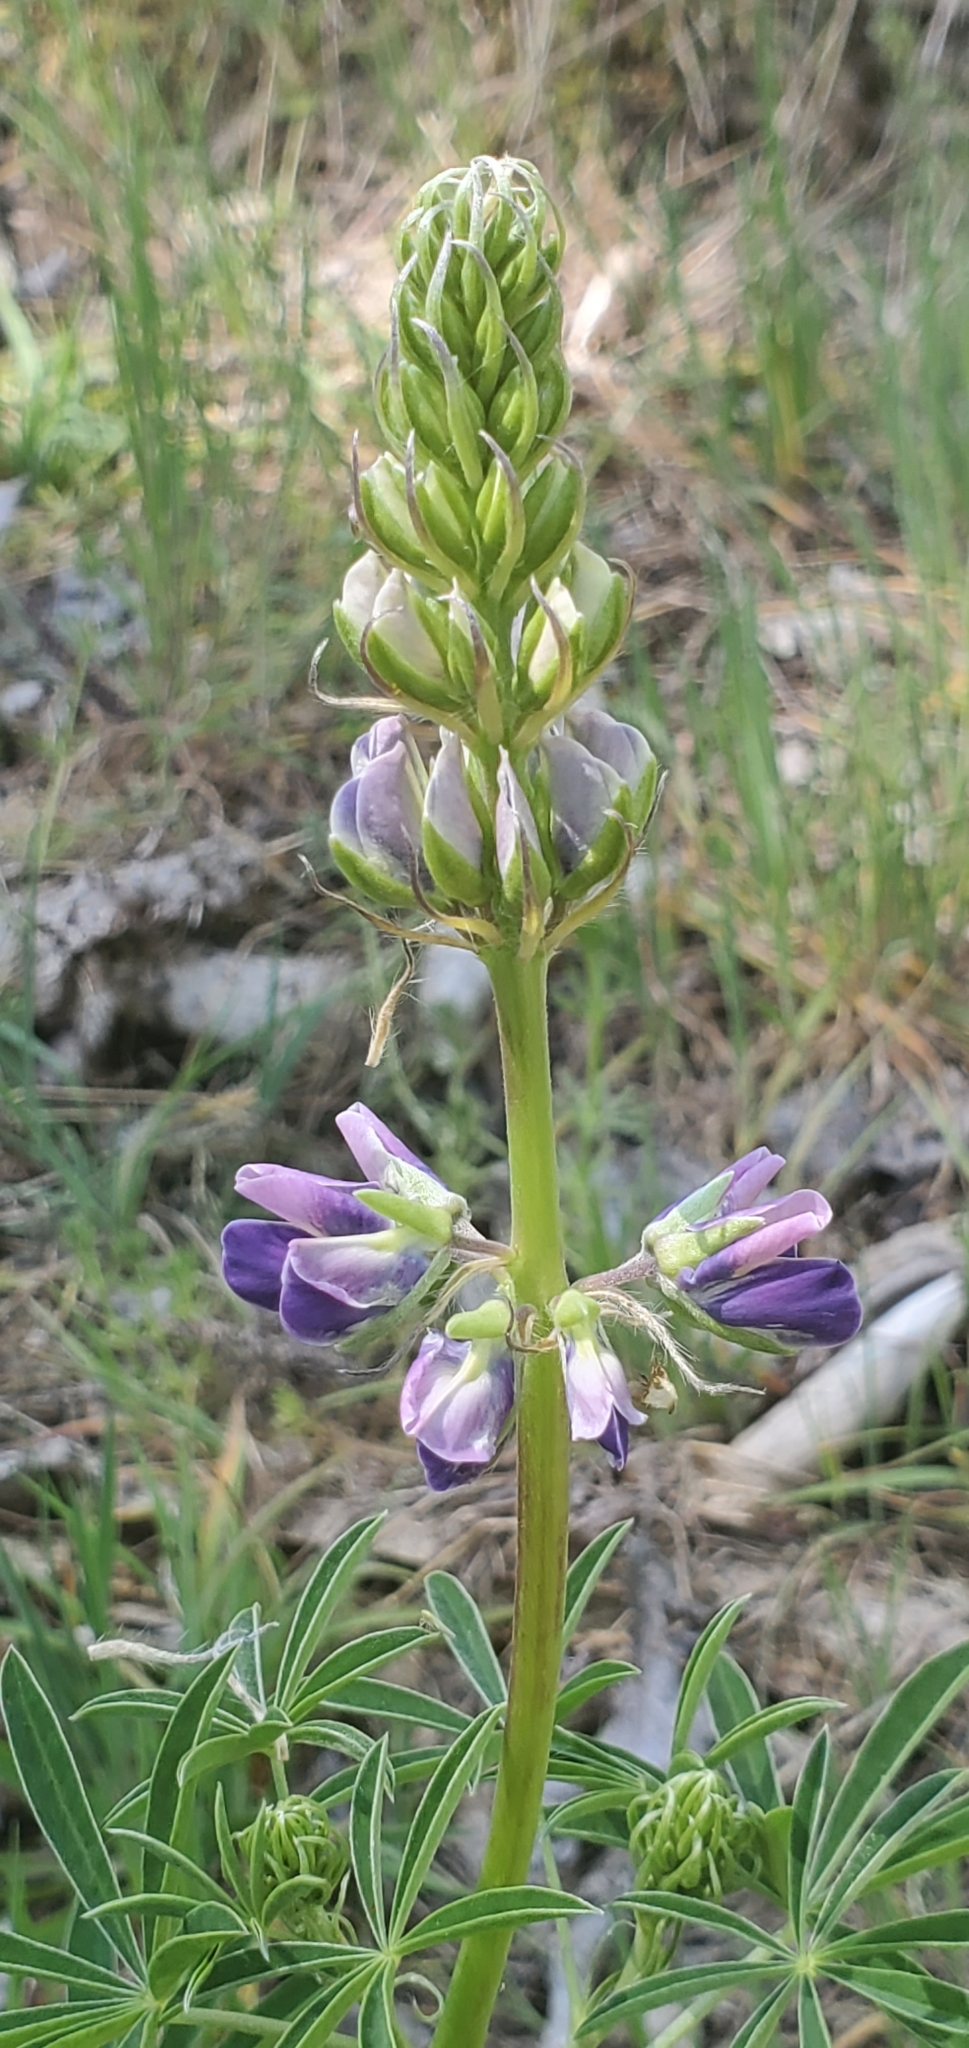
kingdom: Plantae
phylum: Tracheophyta
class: Magnoliopsida
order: Fabales
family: Fabaceae
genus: Lupinus
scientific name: Lupinus rivularis
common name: Riverbank lupine
